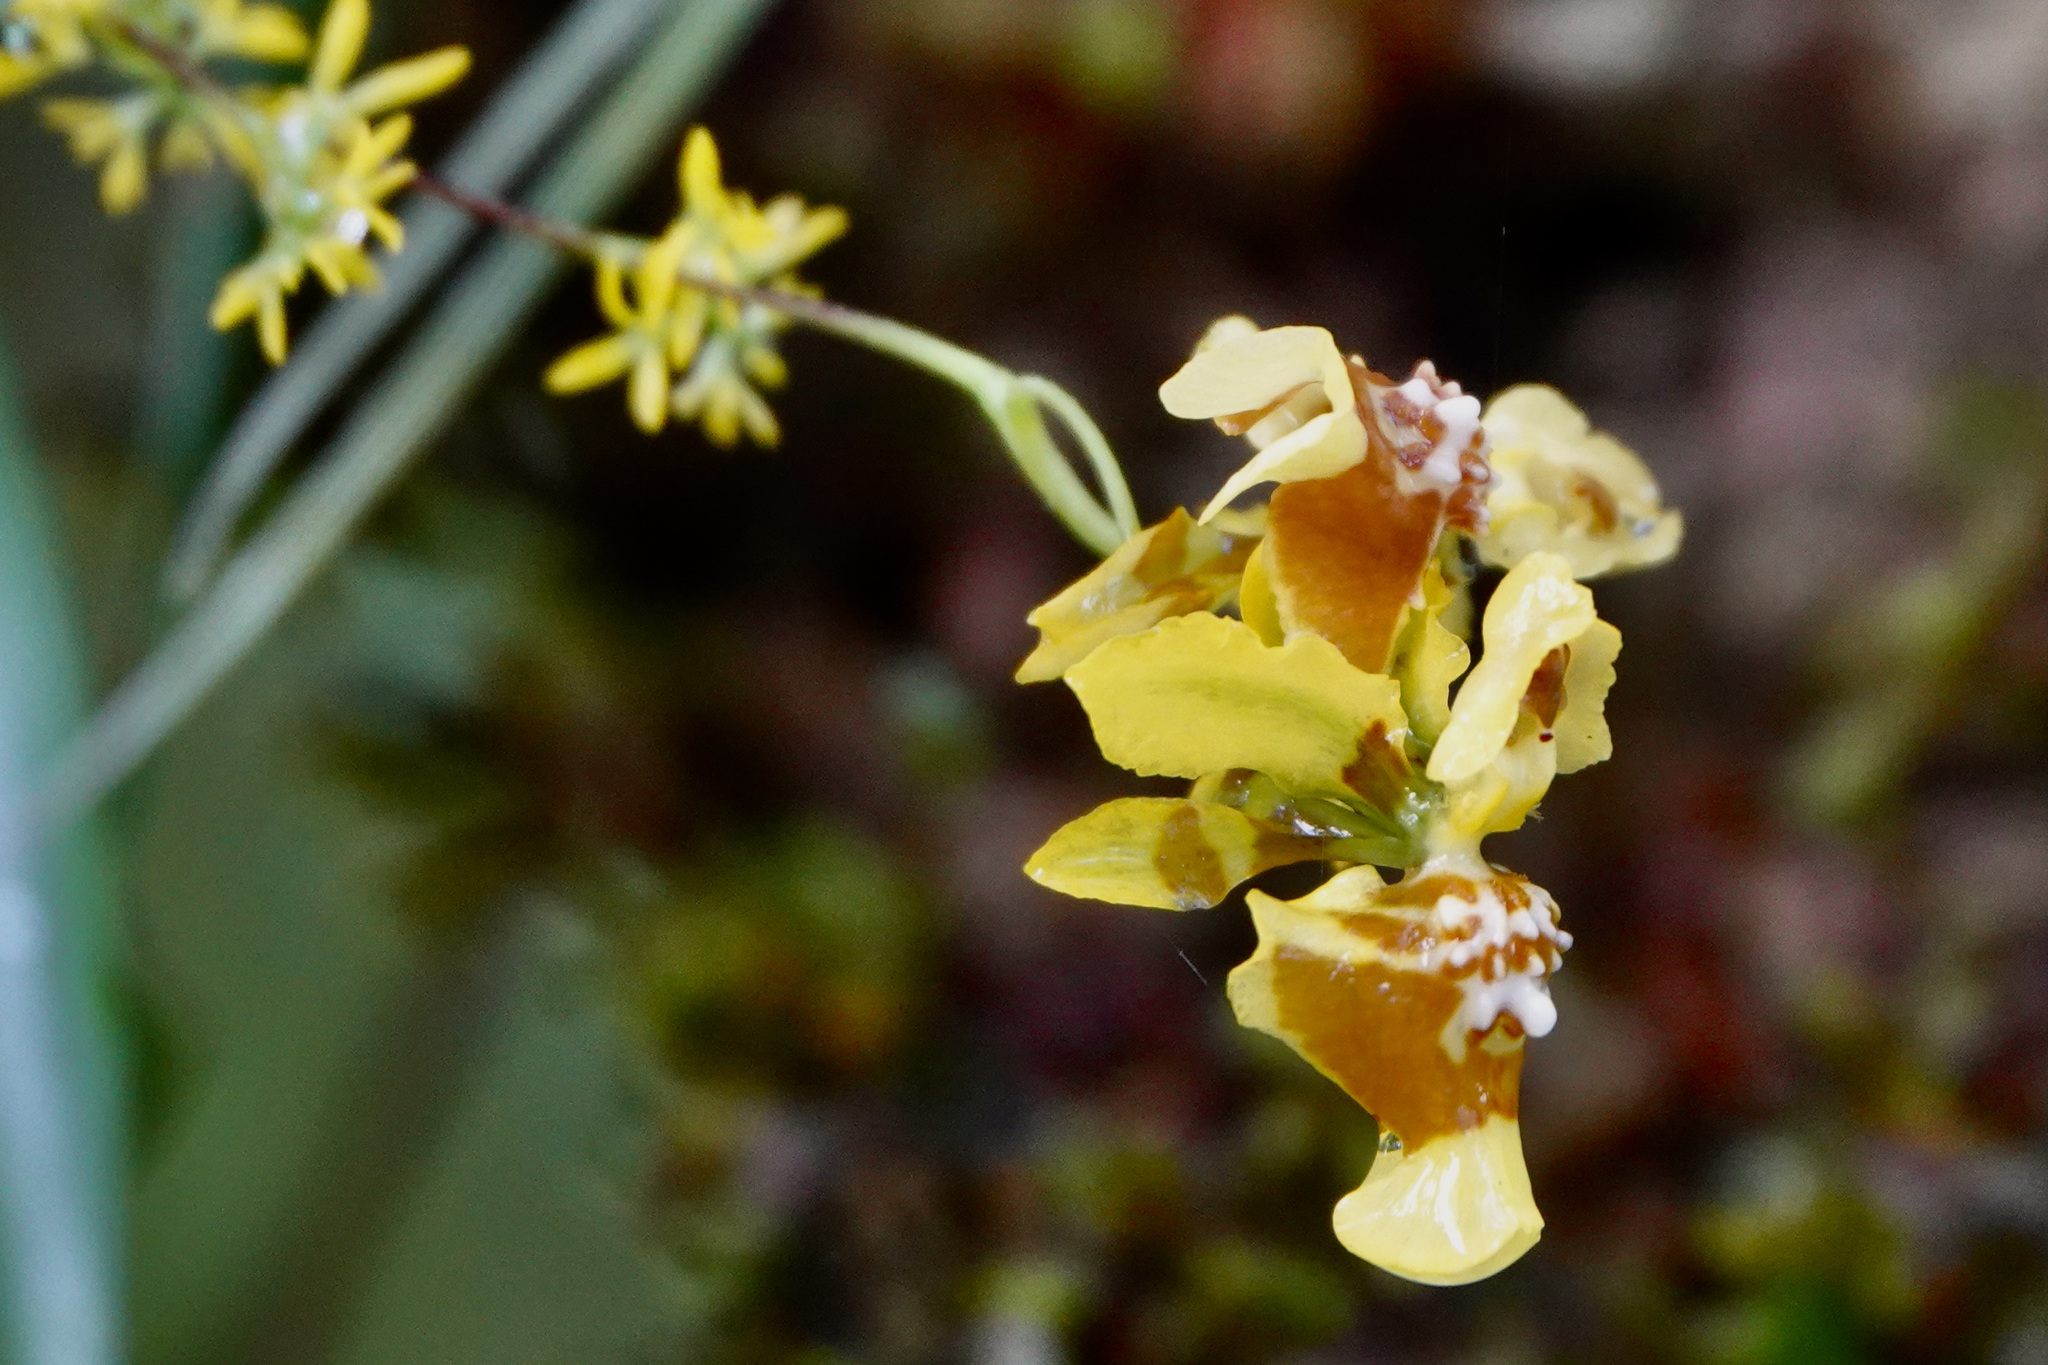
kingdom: Plantae
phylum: Tracheophyta
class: Liliopsida
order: Asparagales
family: Orchidaceae
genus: Oncidium
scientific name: Oncidium adelaidae
